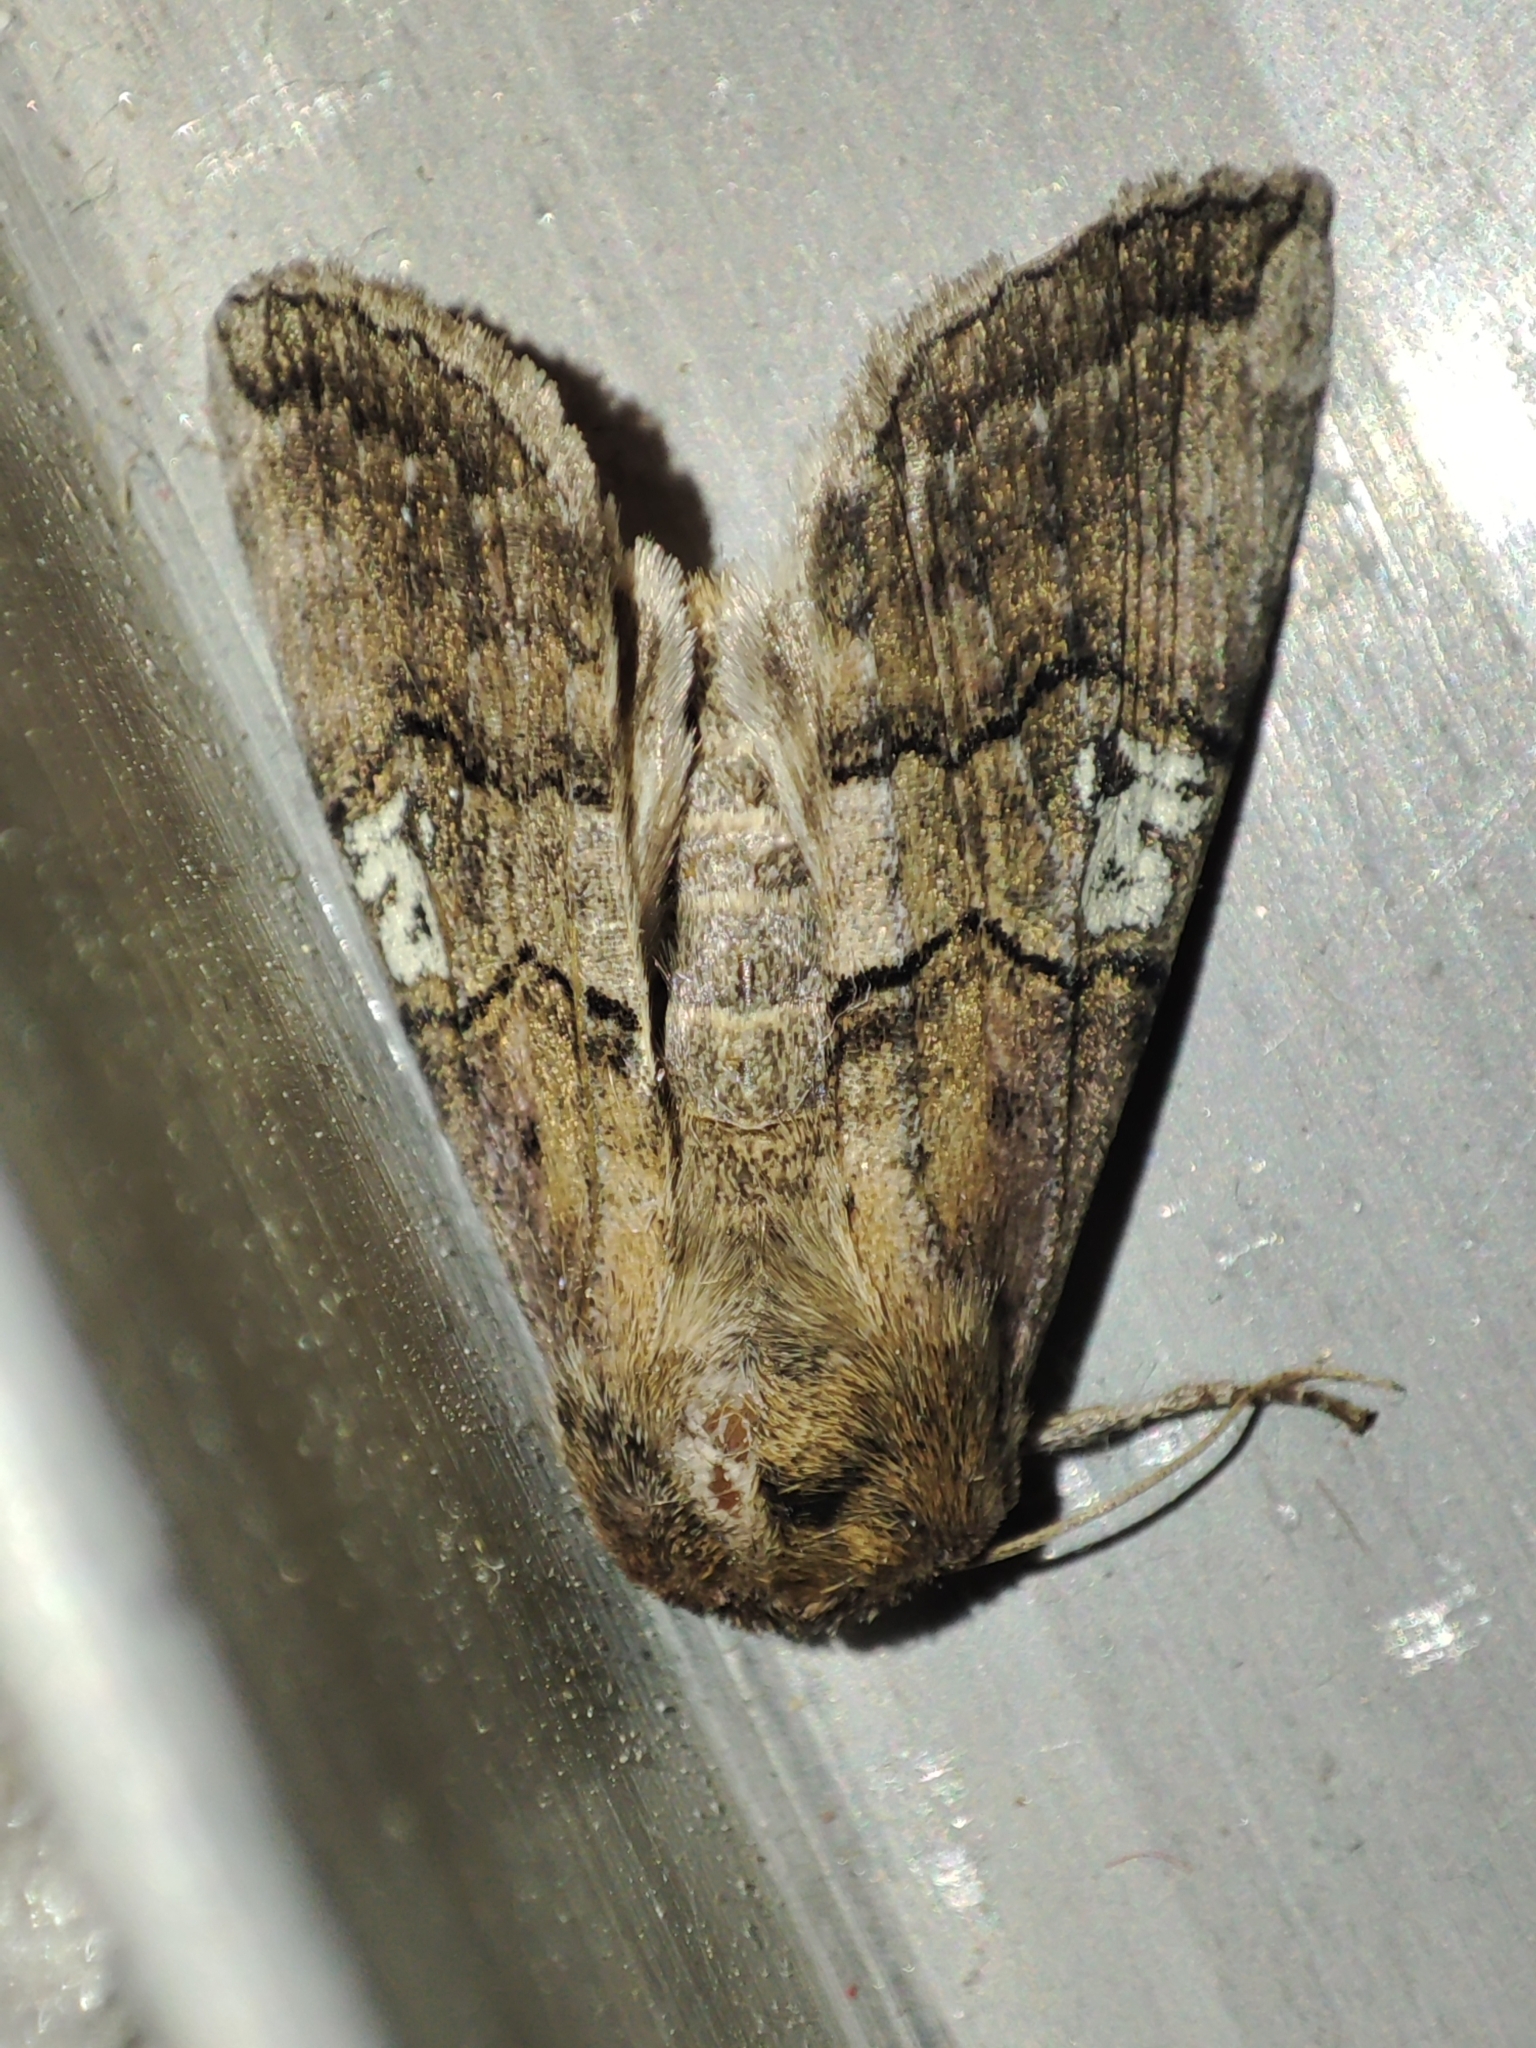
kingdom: Animalia
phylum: Arthropoda
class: Insecta
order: Lepidoptera
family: Drepanidae
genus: Tethea
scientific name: Tethea ocularis
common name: Figure of eighty
